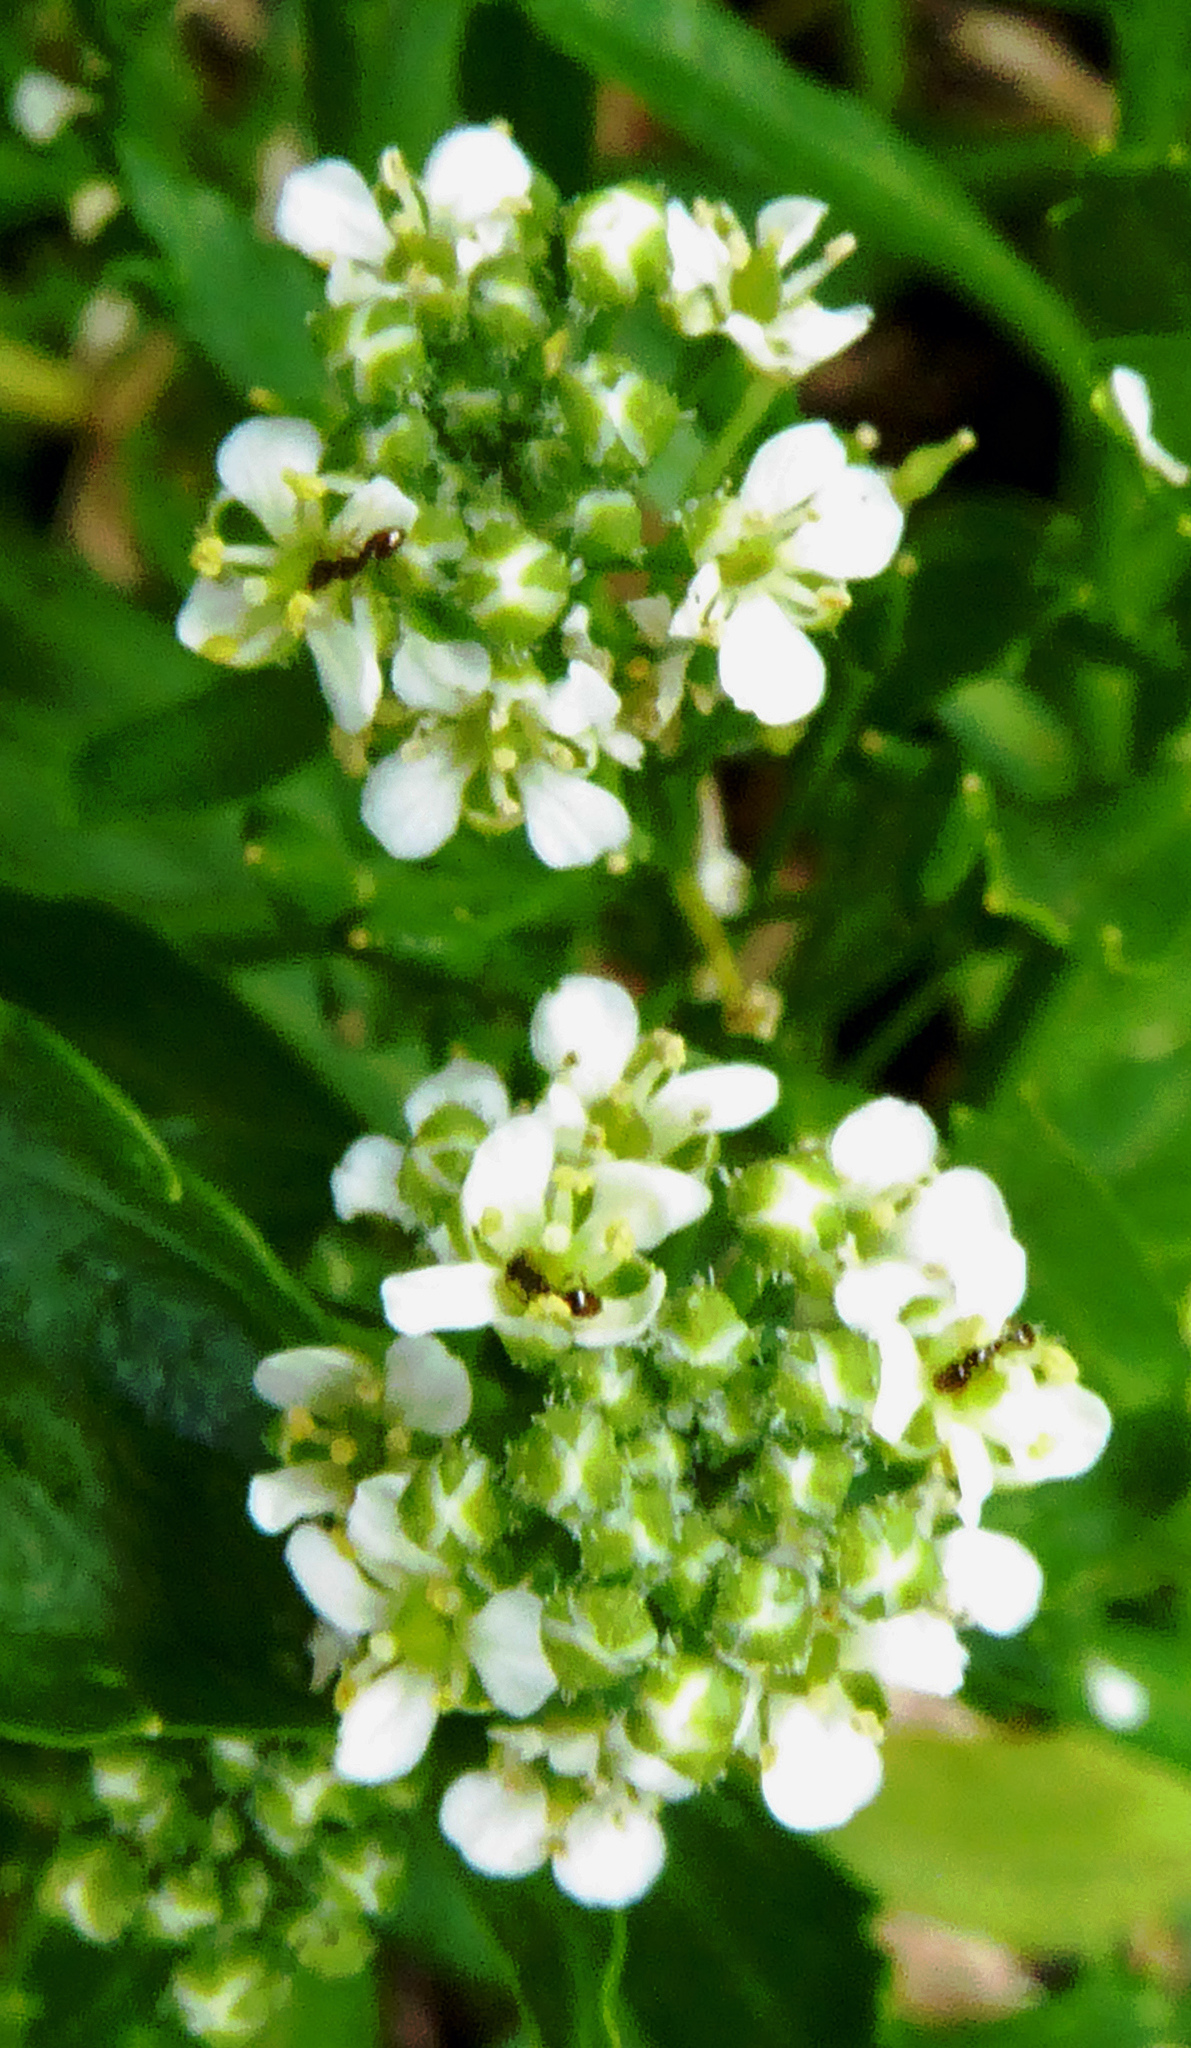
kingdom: Plantae
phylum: Tracheophyta
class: Magnoliopsida
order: Brassicales
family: Brassicaceae
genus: Lepidium
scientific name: Lepidium oleraceum
